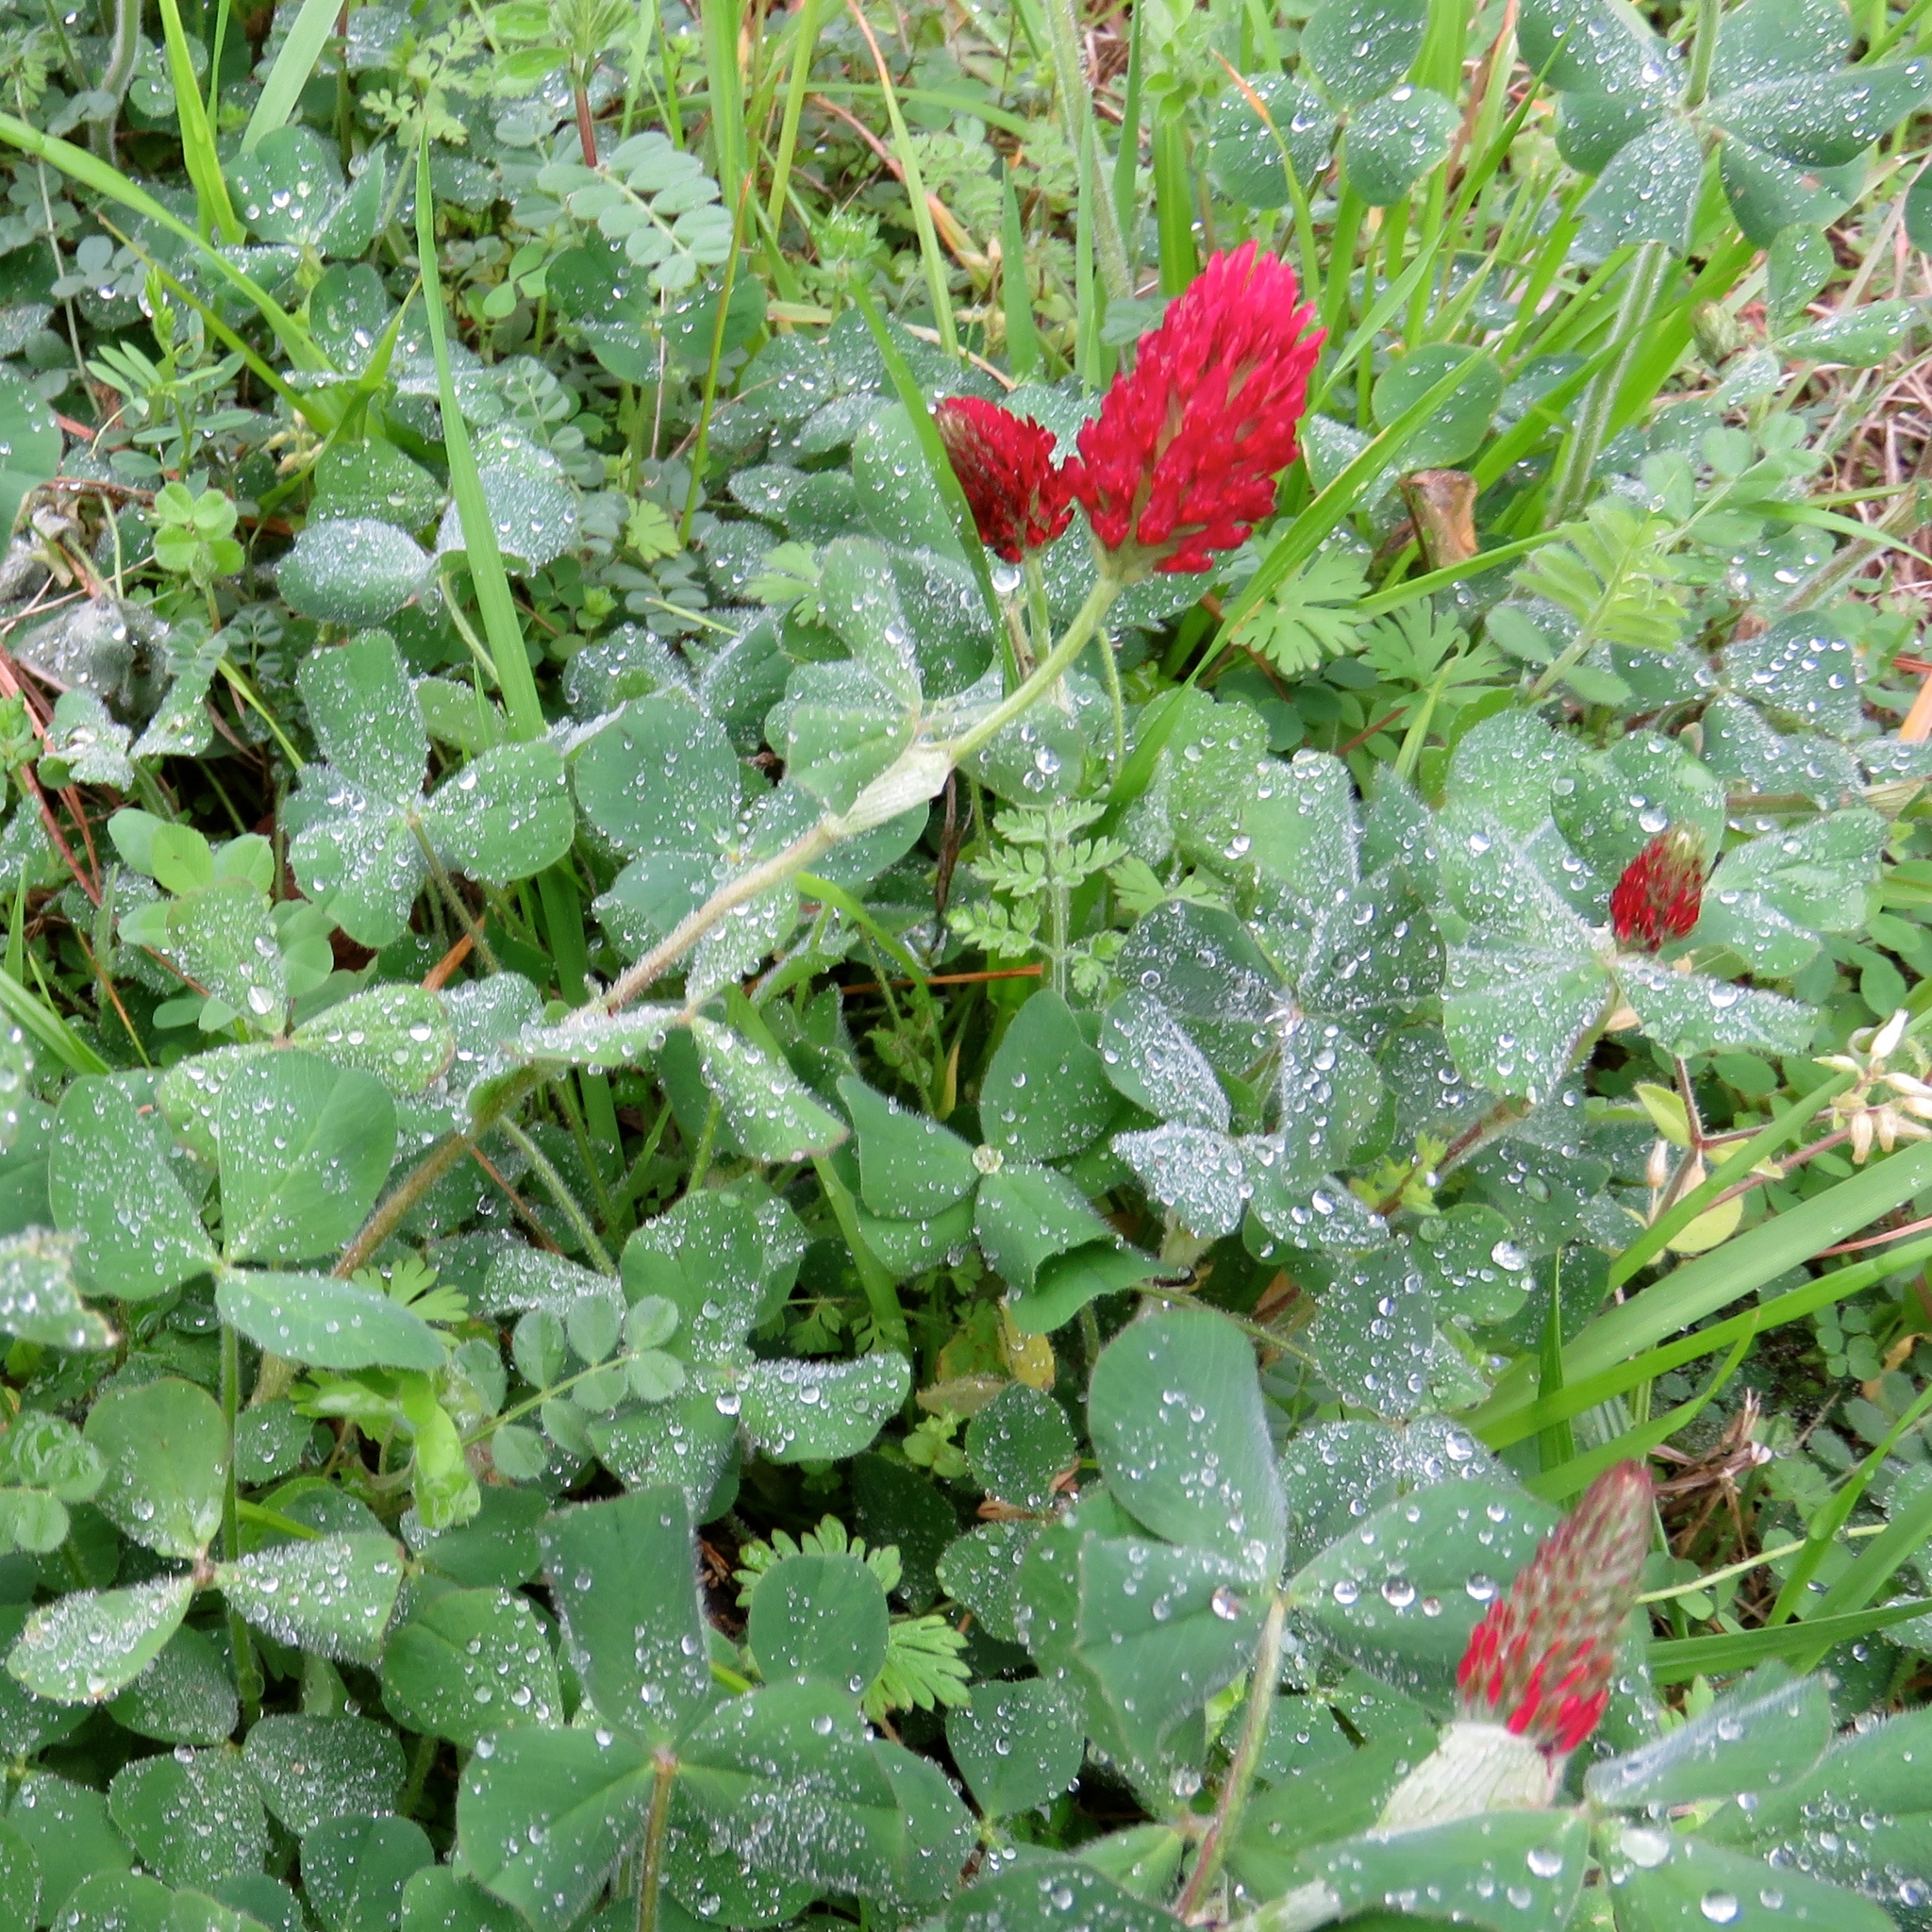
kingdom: Plantae
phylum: Tracheophyta
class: Magnoliopsida
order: Fabales
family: Fabaceae
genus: Trifolium
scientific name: Trifolium incarnatum
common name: Crimson clover
